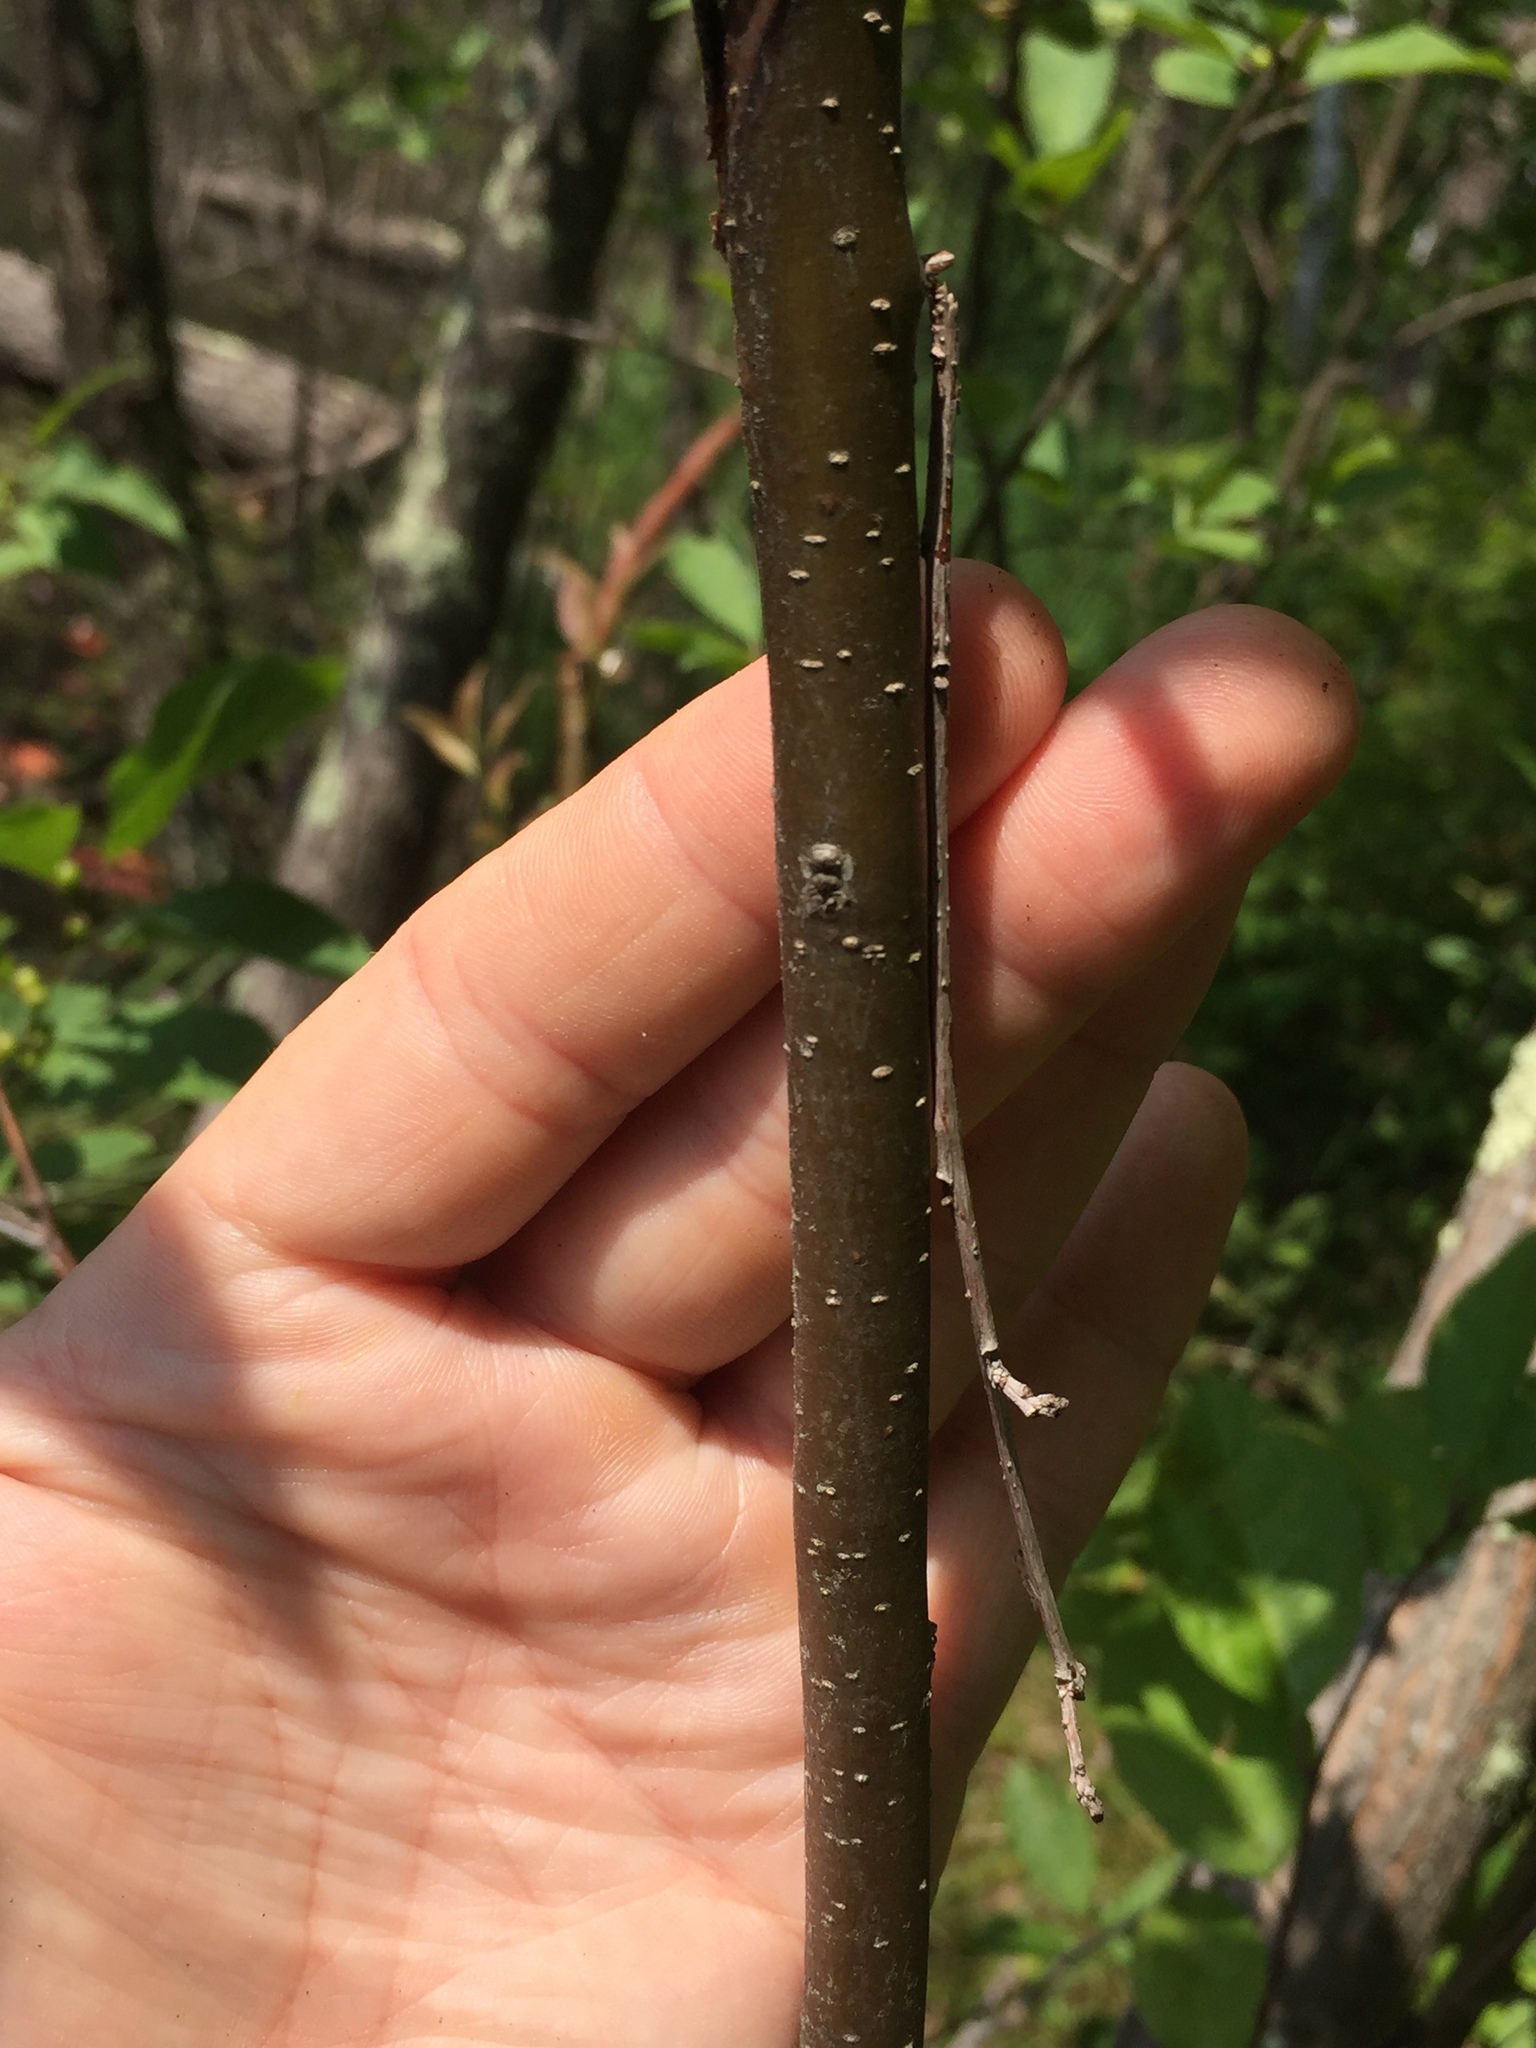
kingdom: Plantae
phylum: Tracheophyta
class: Magnoliopsida
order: Aquifoliales
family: Aquifoliaceae
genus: Ilex
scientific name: Ilex verticillata
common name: Virginia winterberry
